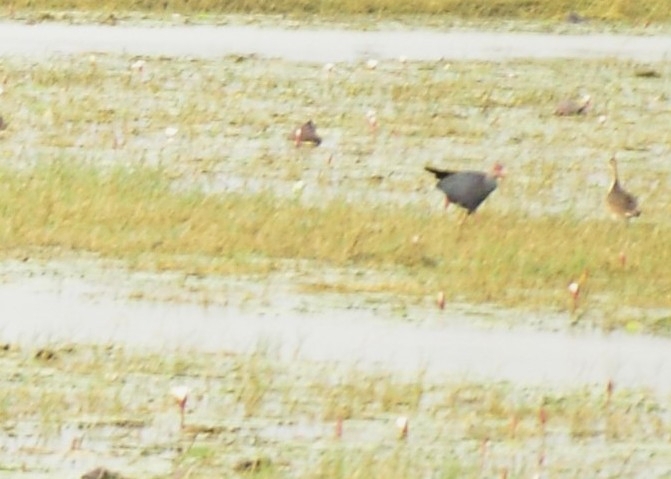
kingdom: Animalia
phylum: Chordata
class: Aves
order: Gruiformes
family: Rallidae
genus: Porphyrio
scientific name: Porphyrio porphyrio
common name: Purple swamphen
